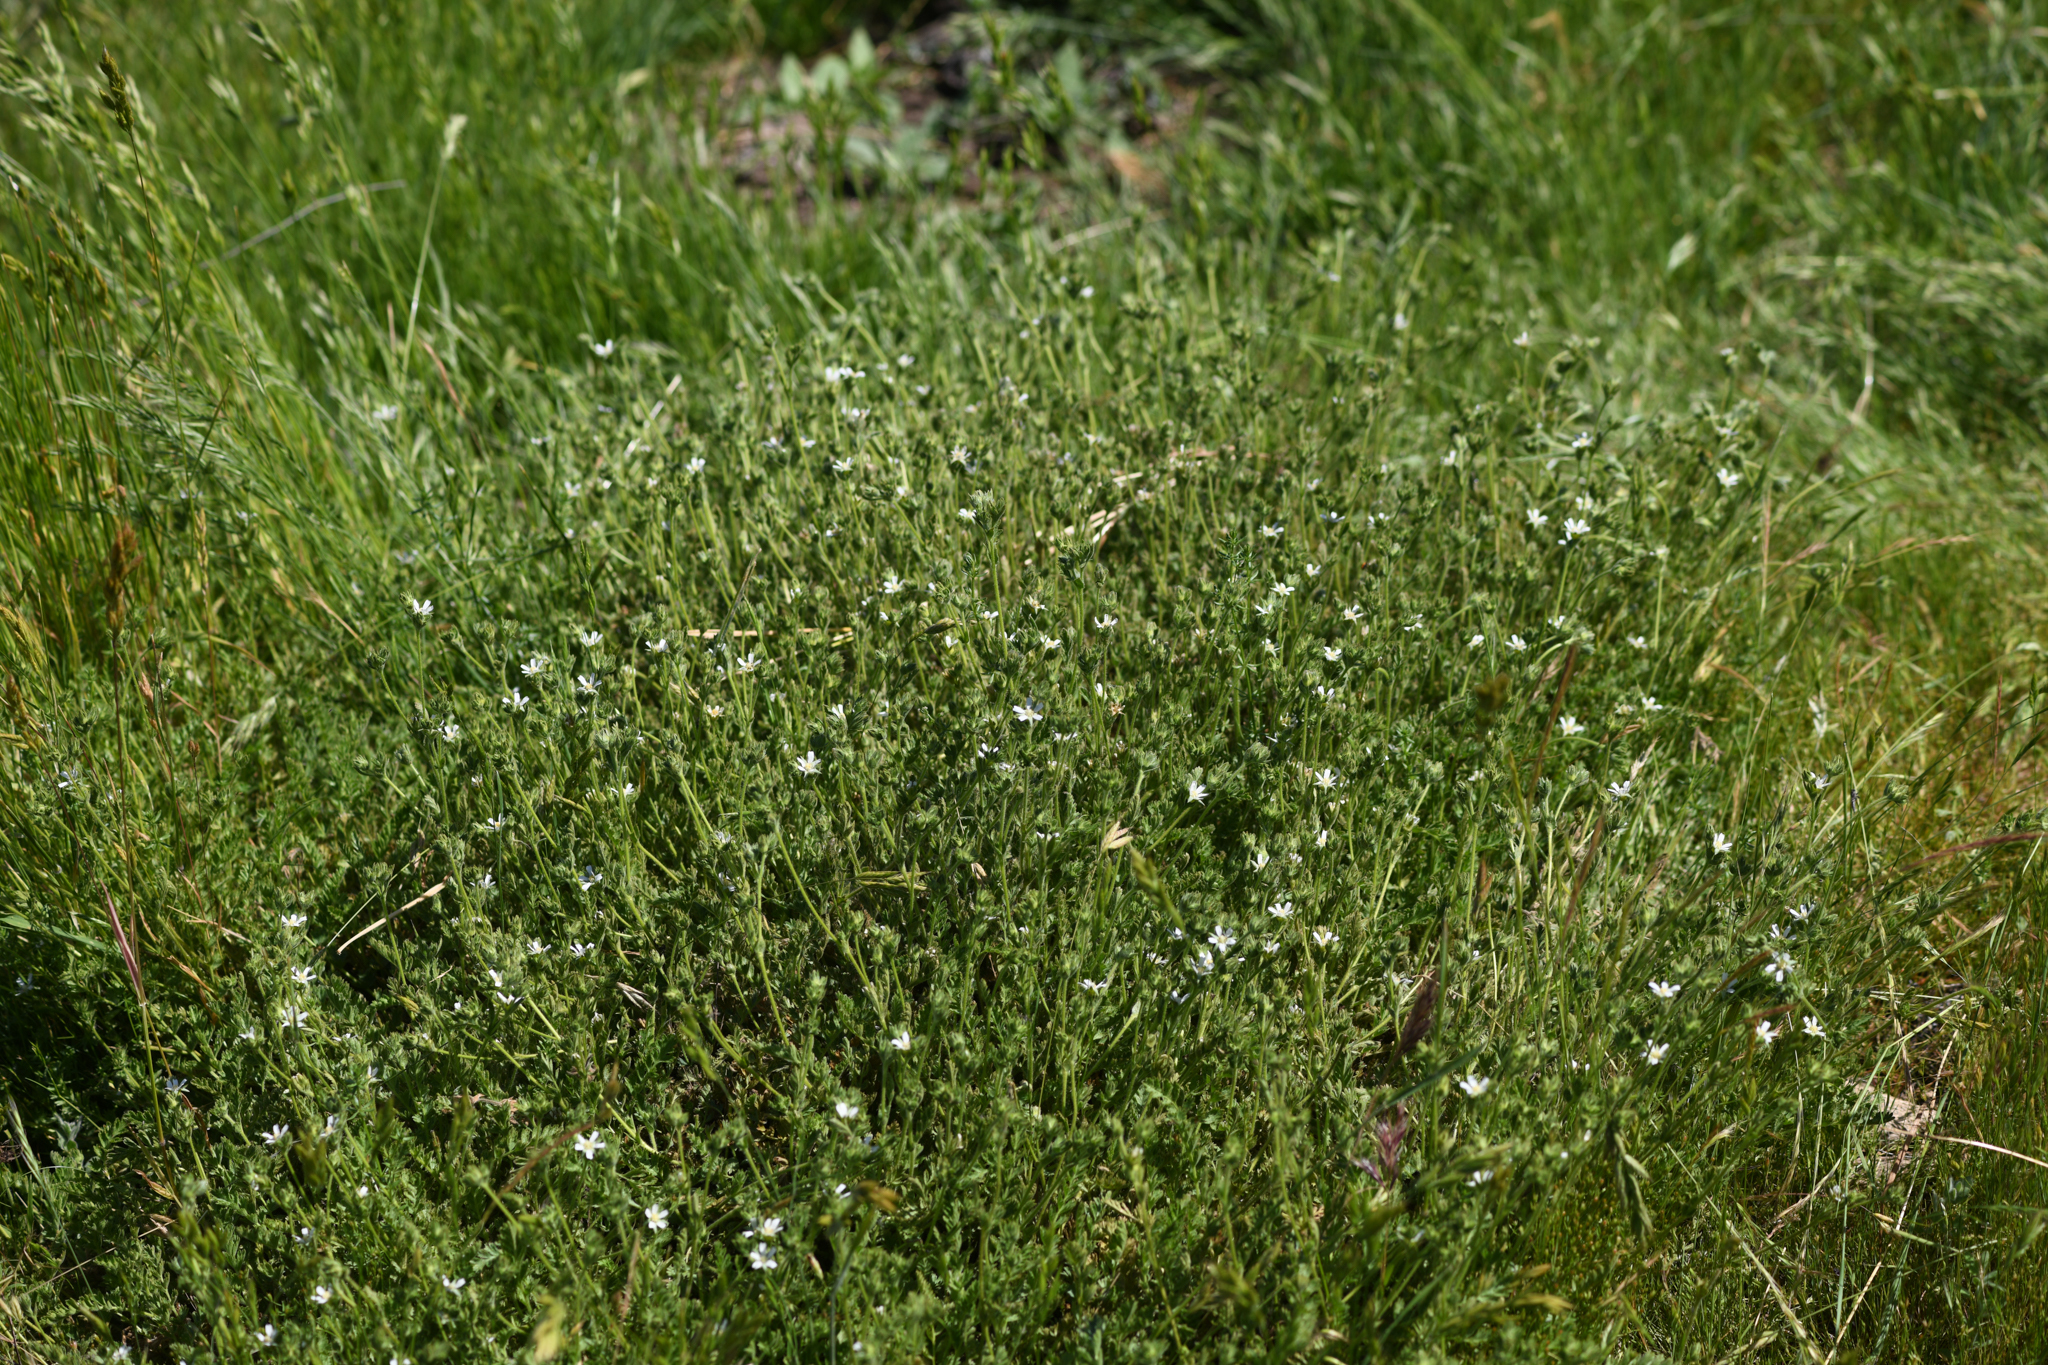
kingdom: Plantae
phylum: Tracheophyta
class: Magnoliopsida
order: Rosales
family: Rosaceae
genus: Potentilla
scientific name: Potentilla yadonii
